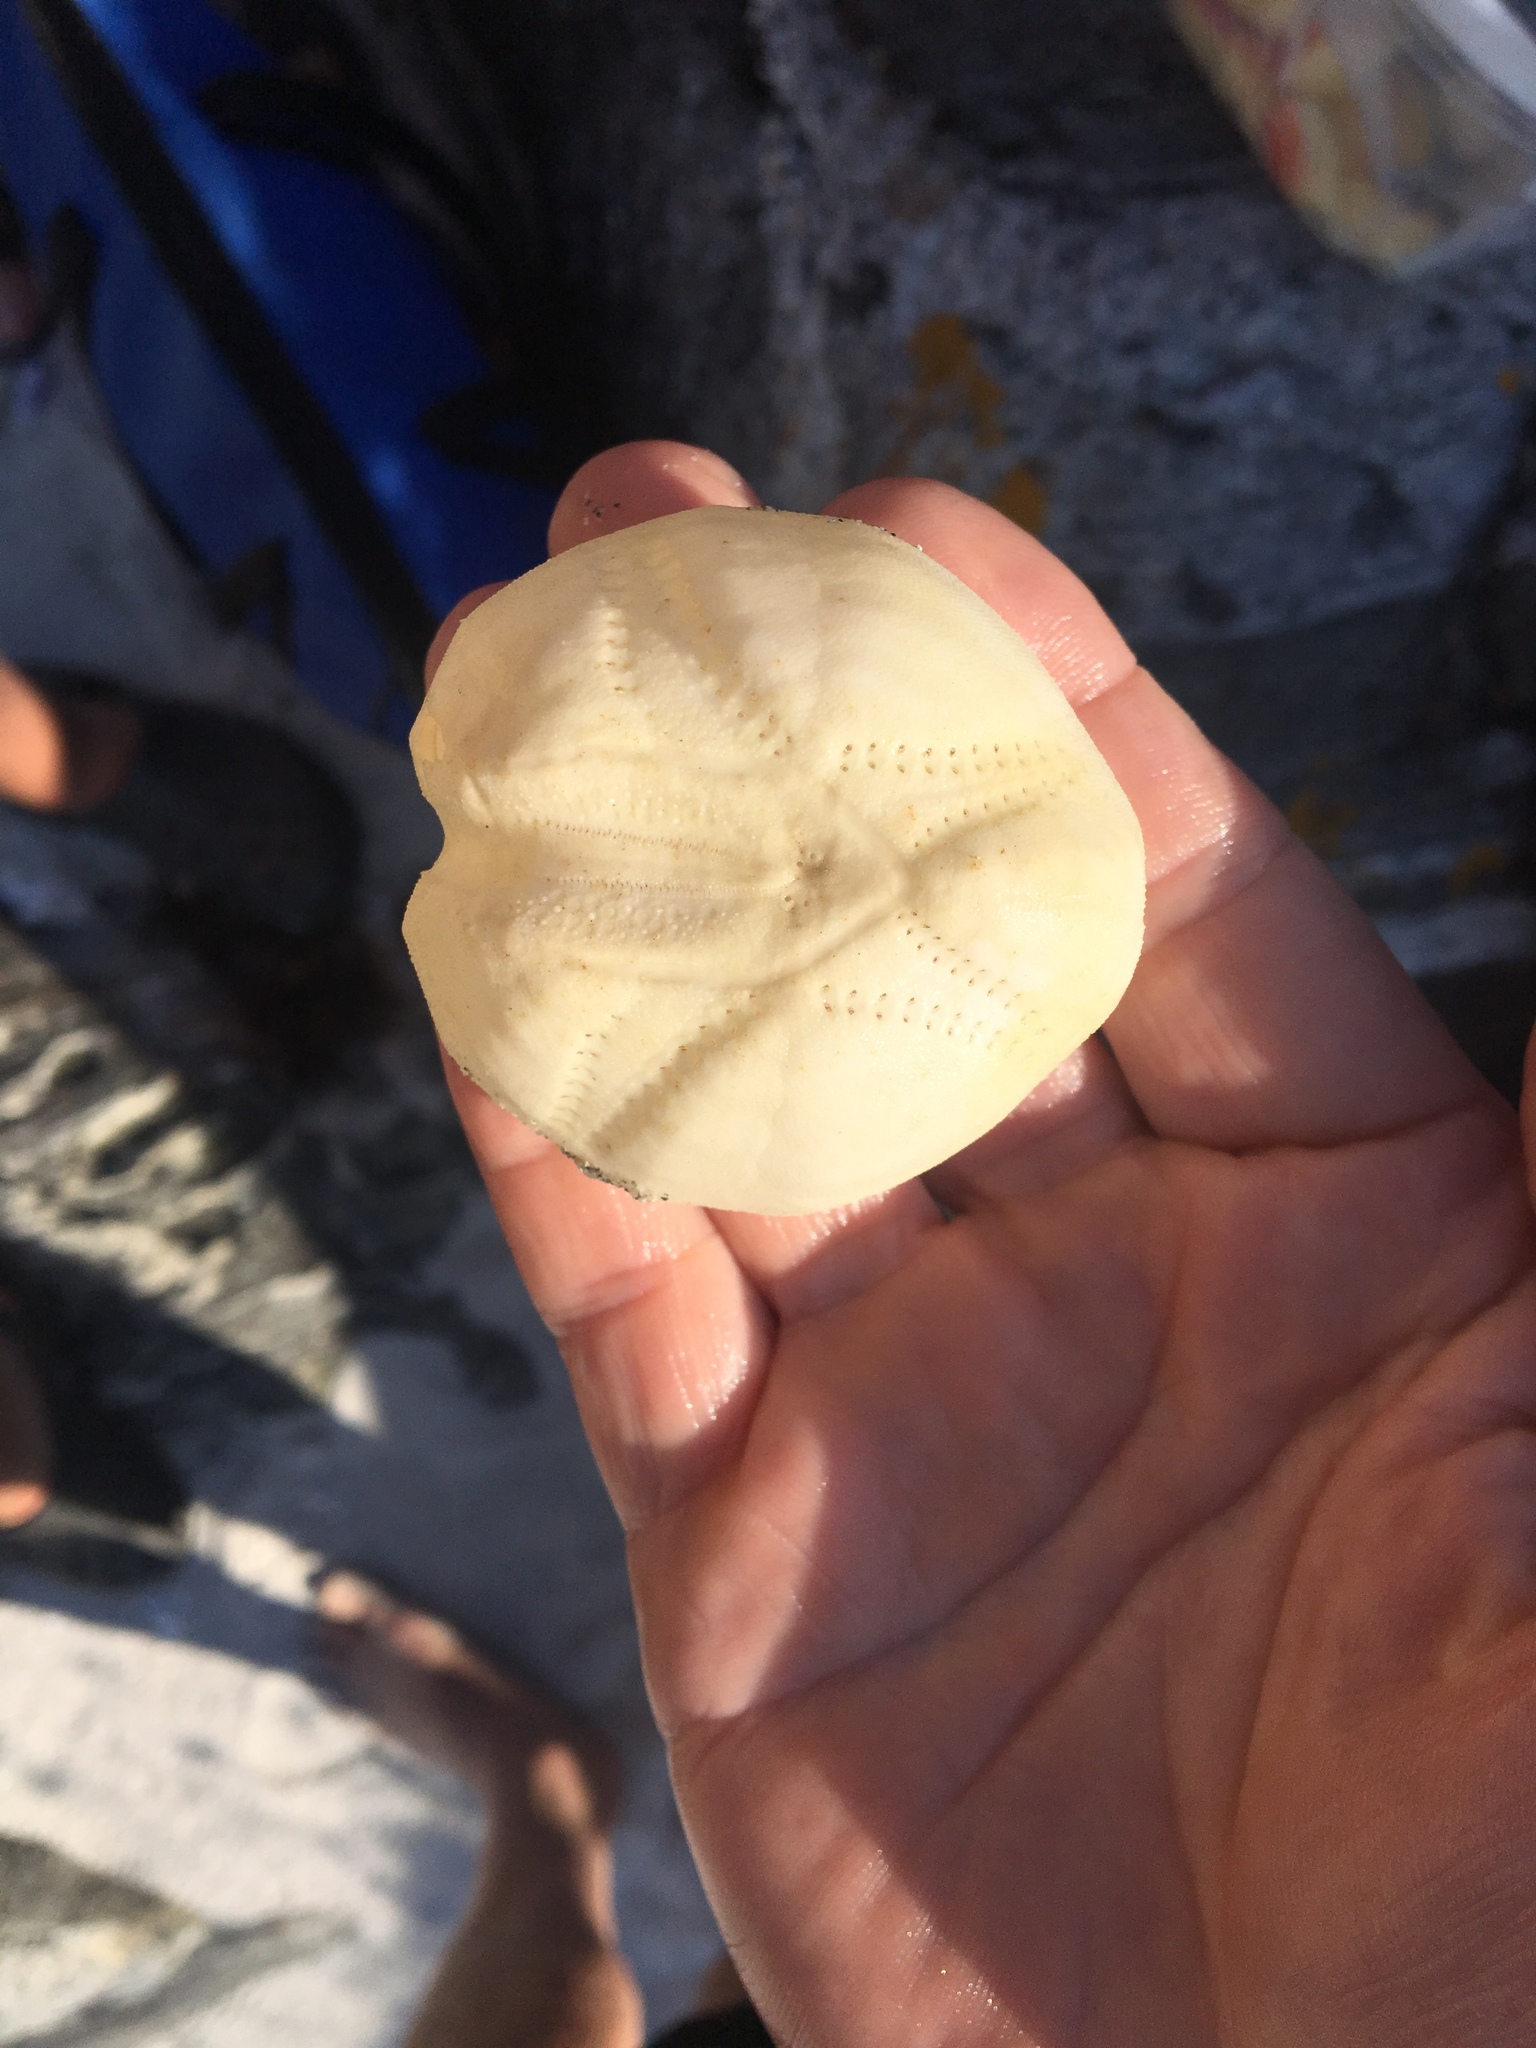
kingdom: Animalia
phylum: Echinodermata
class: Echinoidea
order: Spatangoida
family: Loveniidae
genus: Echinocardium
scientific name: Echinocardium
